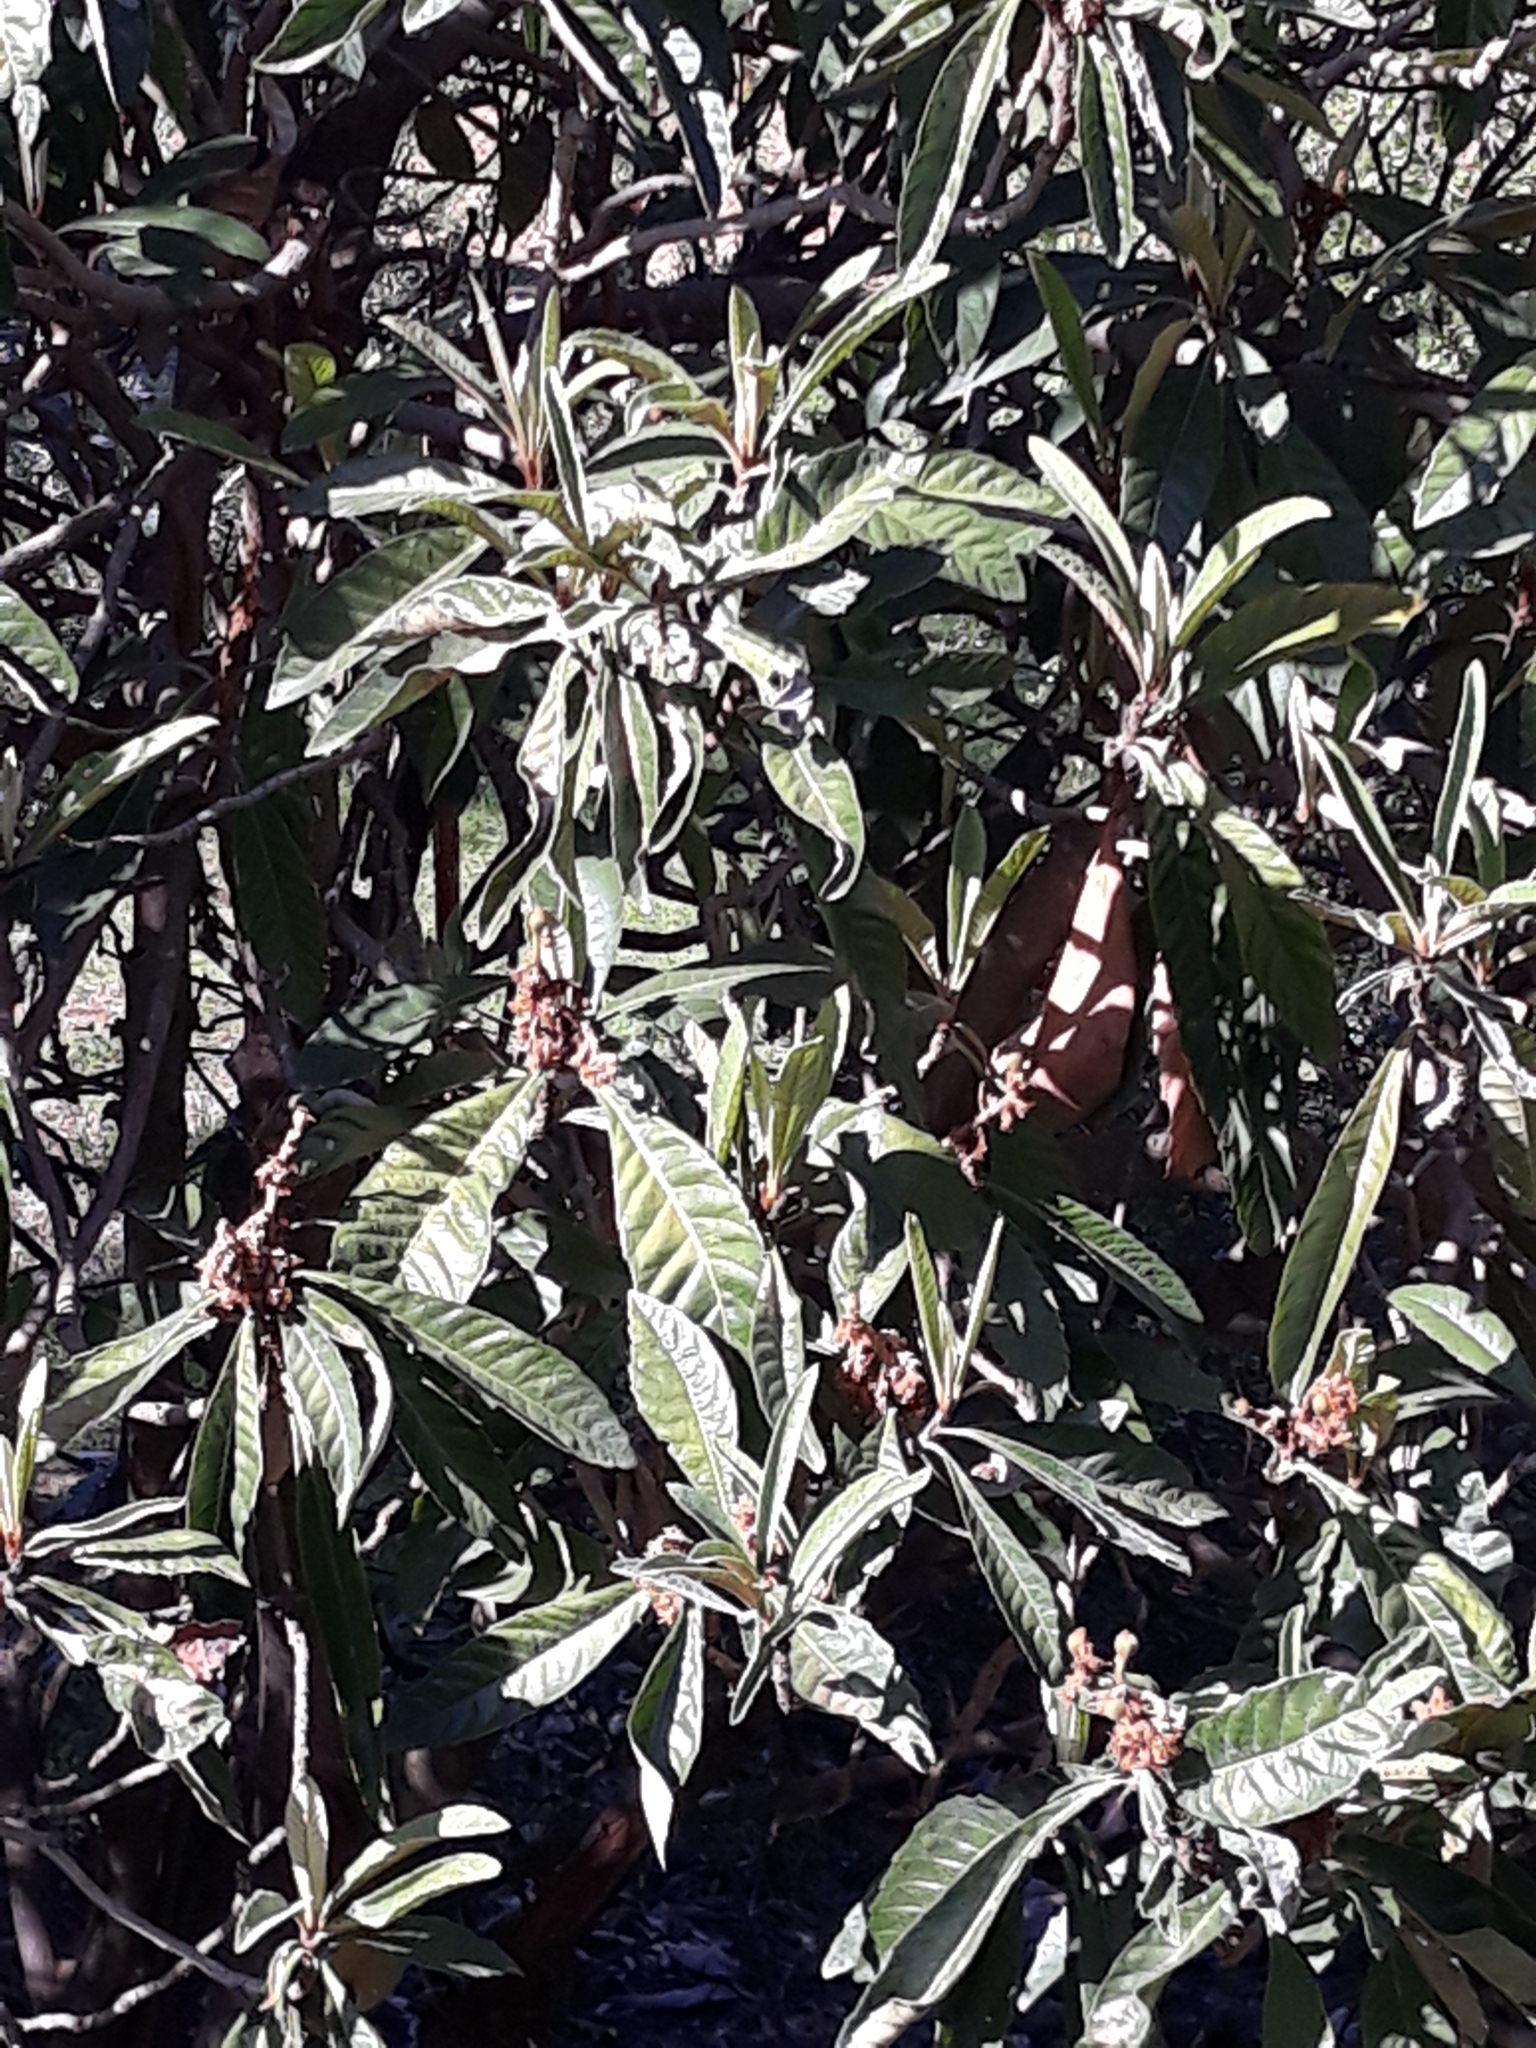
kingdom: Plantae
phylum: Tracheophyta
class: Magnoliopsida
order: Rosales
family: Rosaceae
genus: Rhaphiolepis
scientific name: Rhaphiolepis bibas
